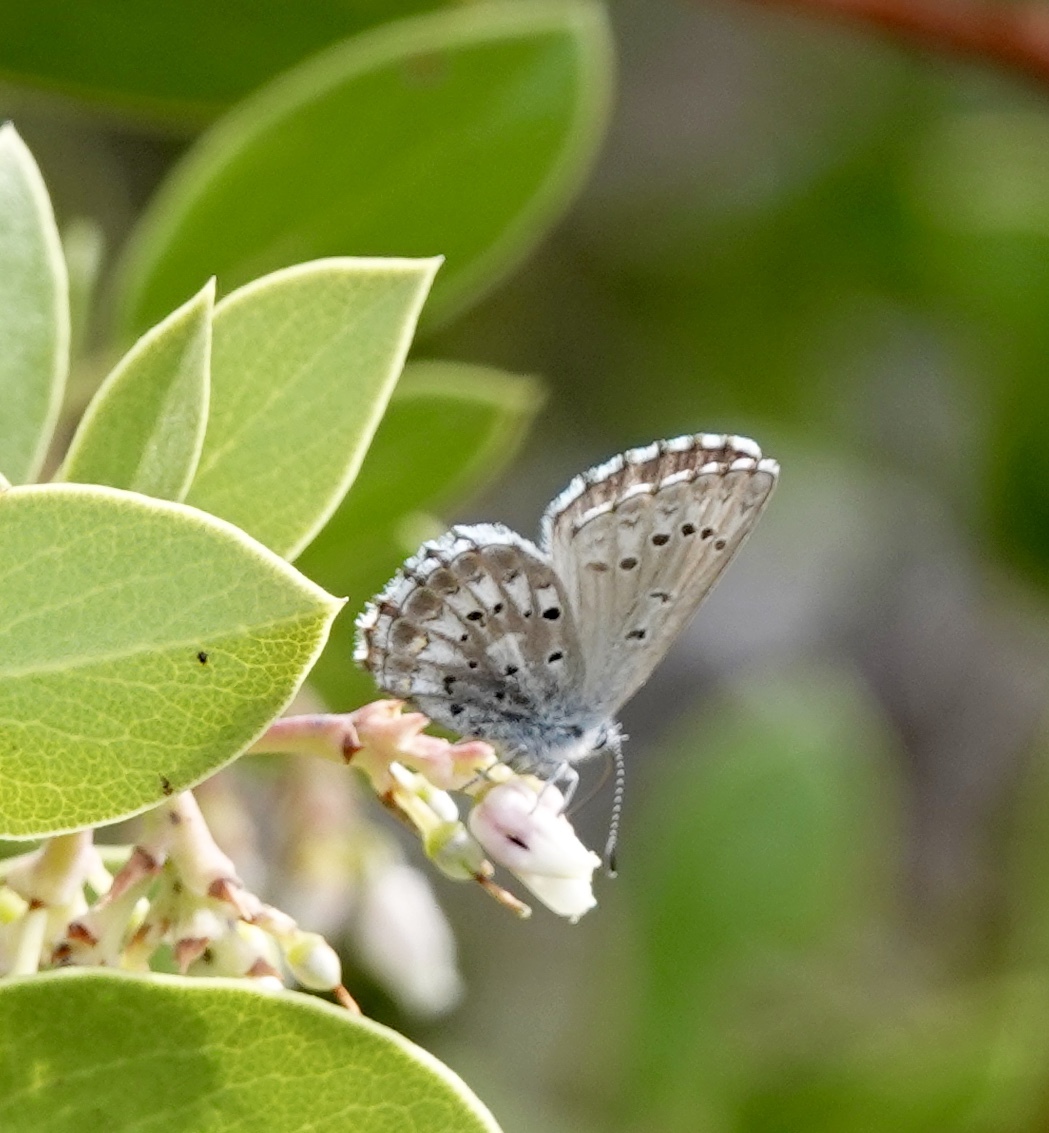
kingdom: Animalia
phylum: Arthropoda
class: Insecta
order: Lepidoptera
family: Lycaenidae
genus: Glaucopsyche
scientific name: Glaucopsyche piasus
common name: Arrowhead blue
